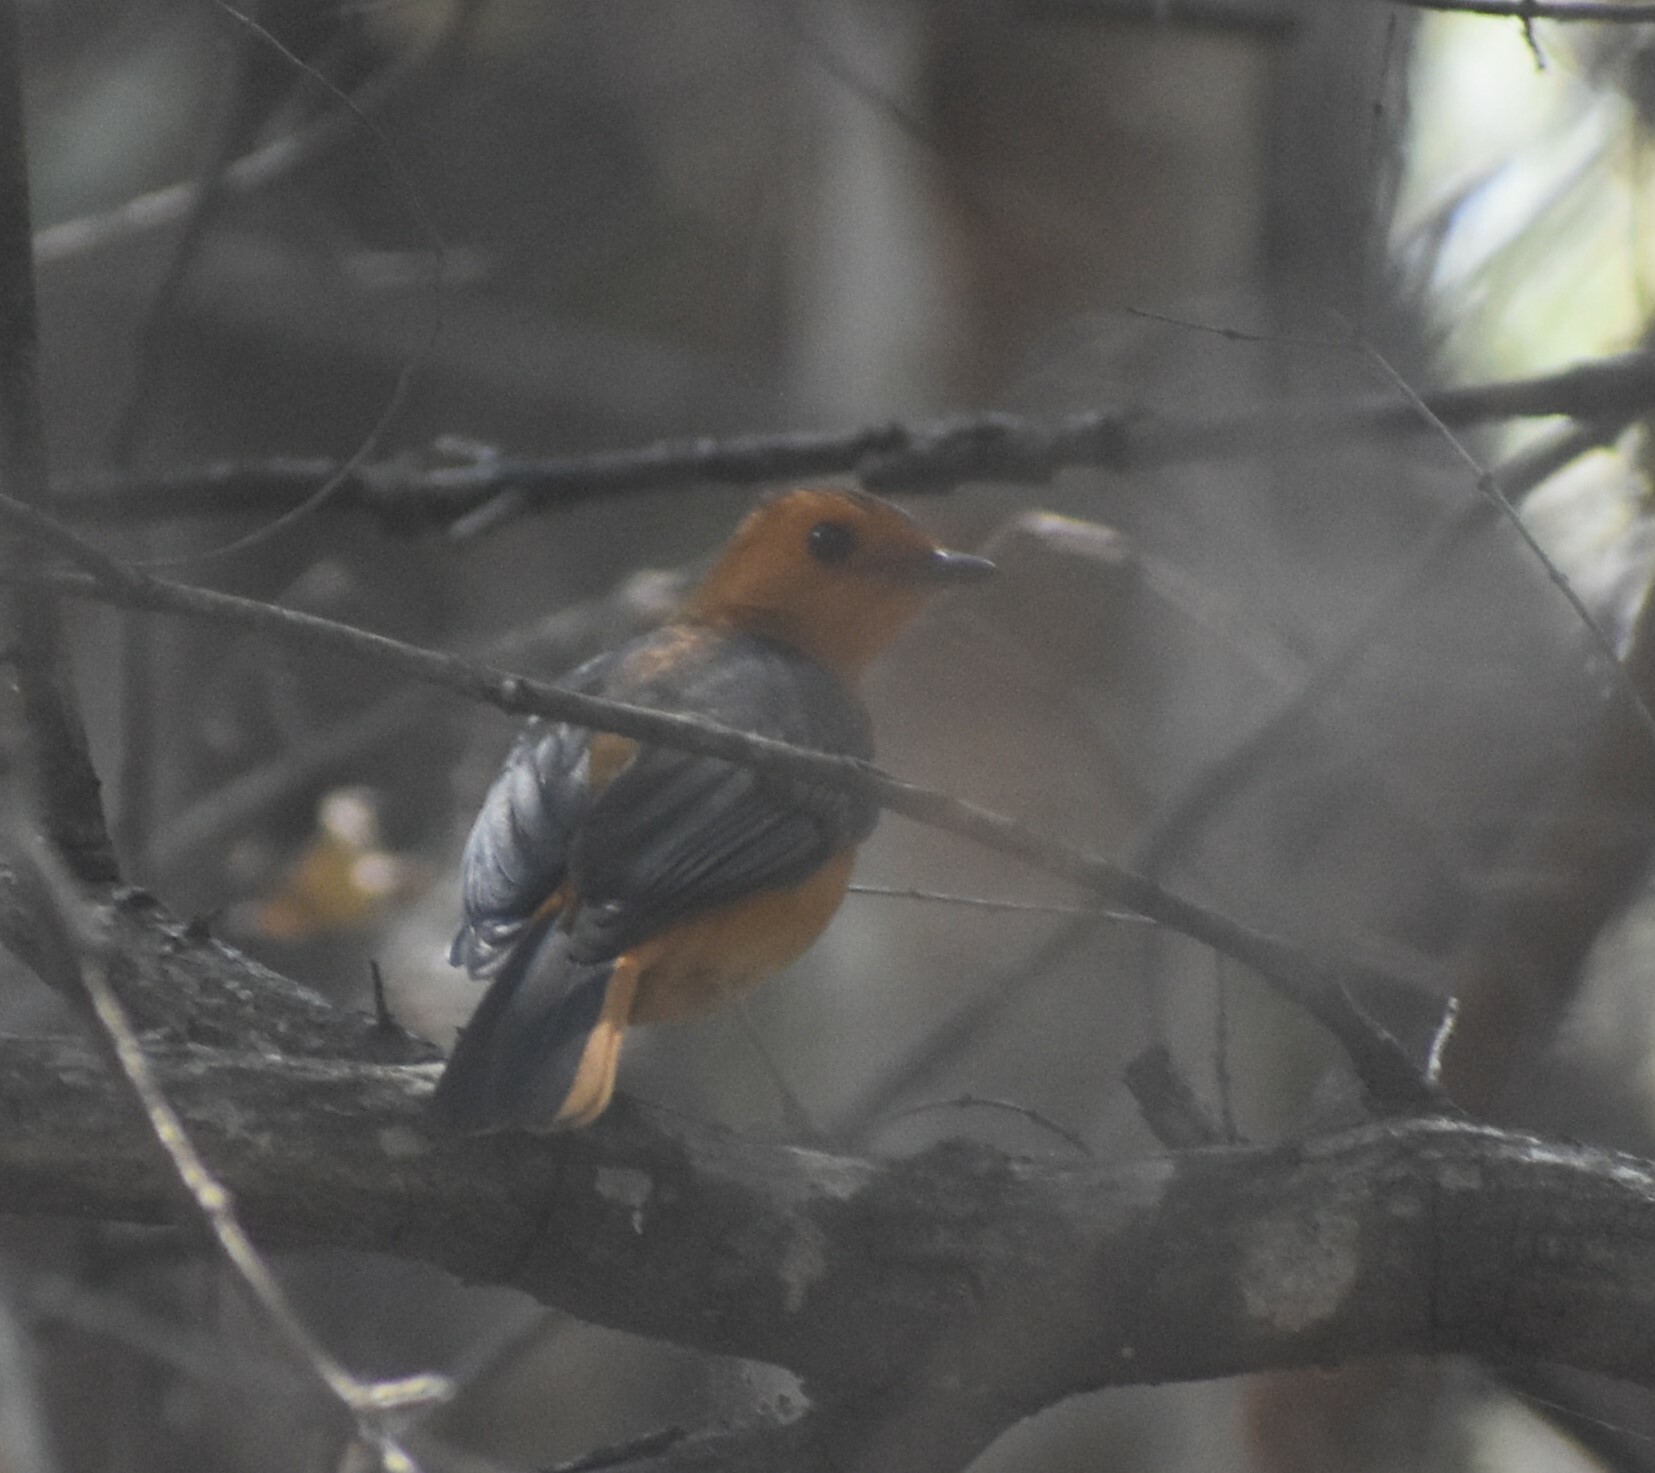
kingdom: Animalia
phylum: Chordata
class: Aves
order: Passeriformes
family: Muscicapidae
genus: Cossypha
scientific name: Cossypha natalensis
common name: Red-capped robin-chat
